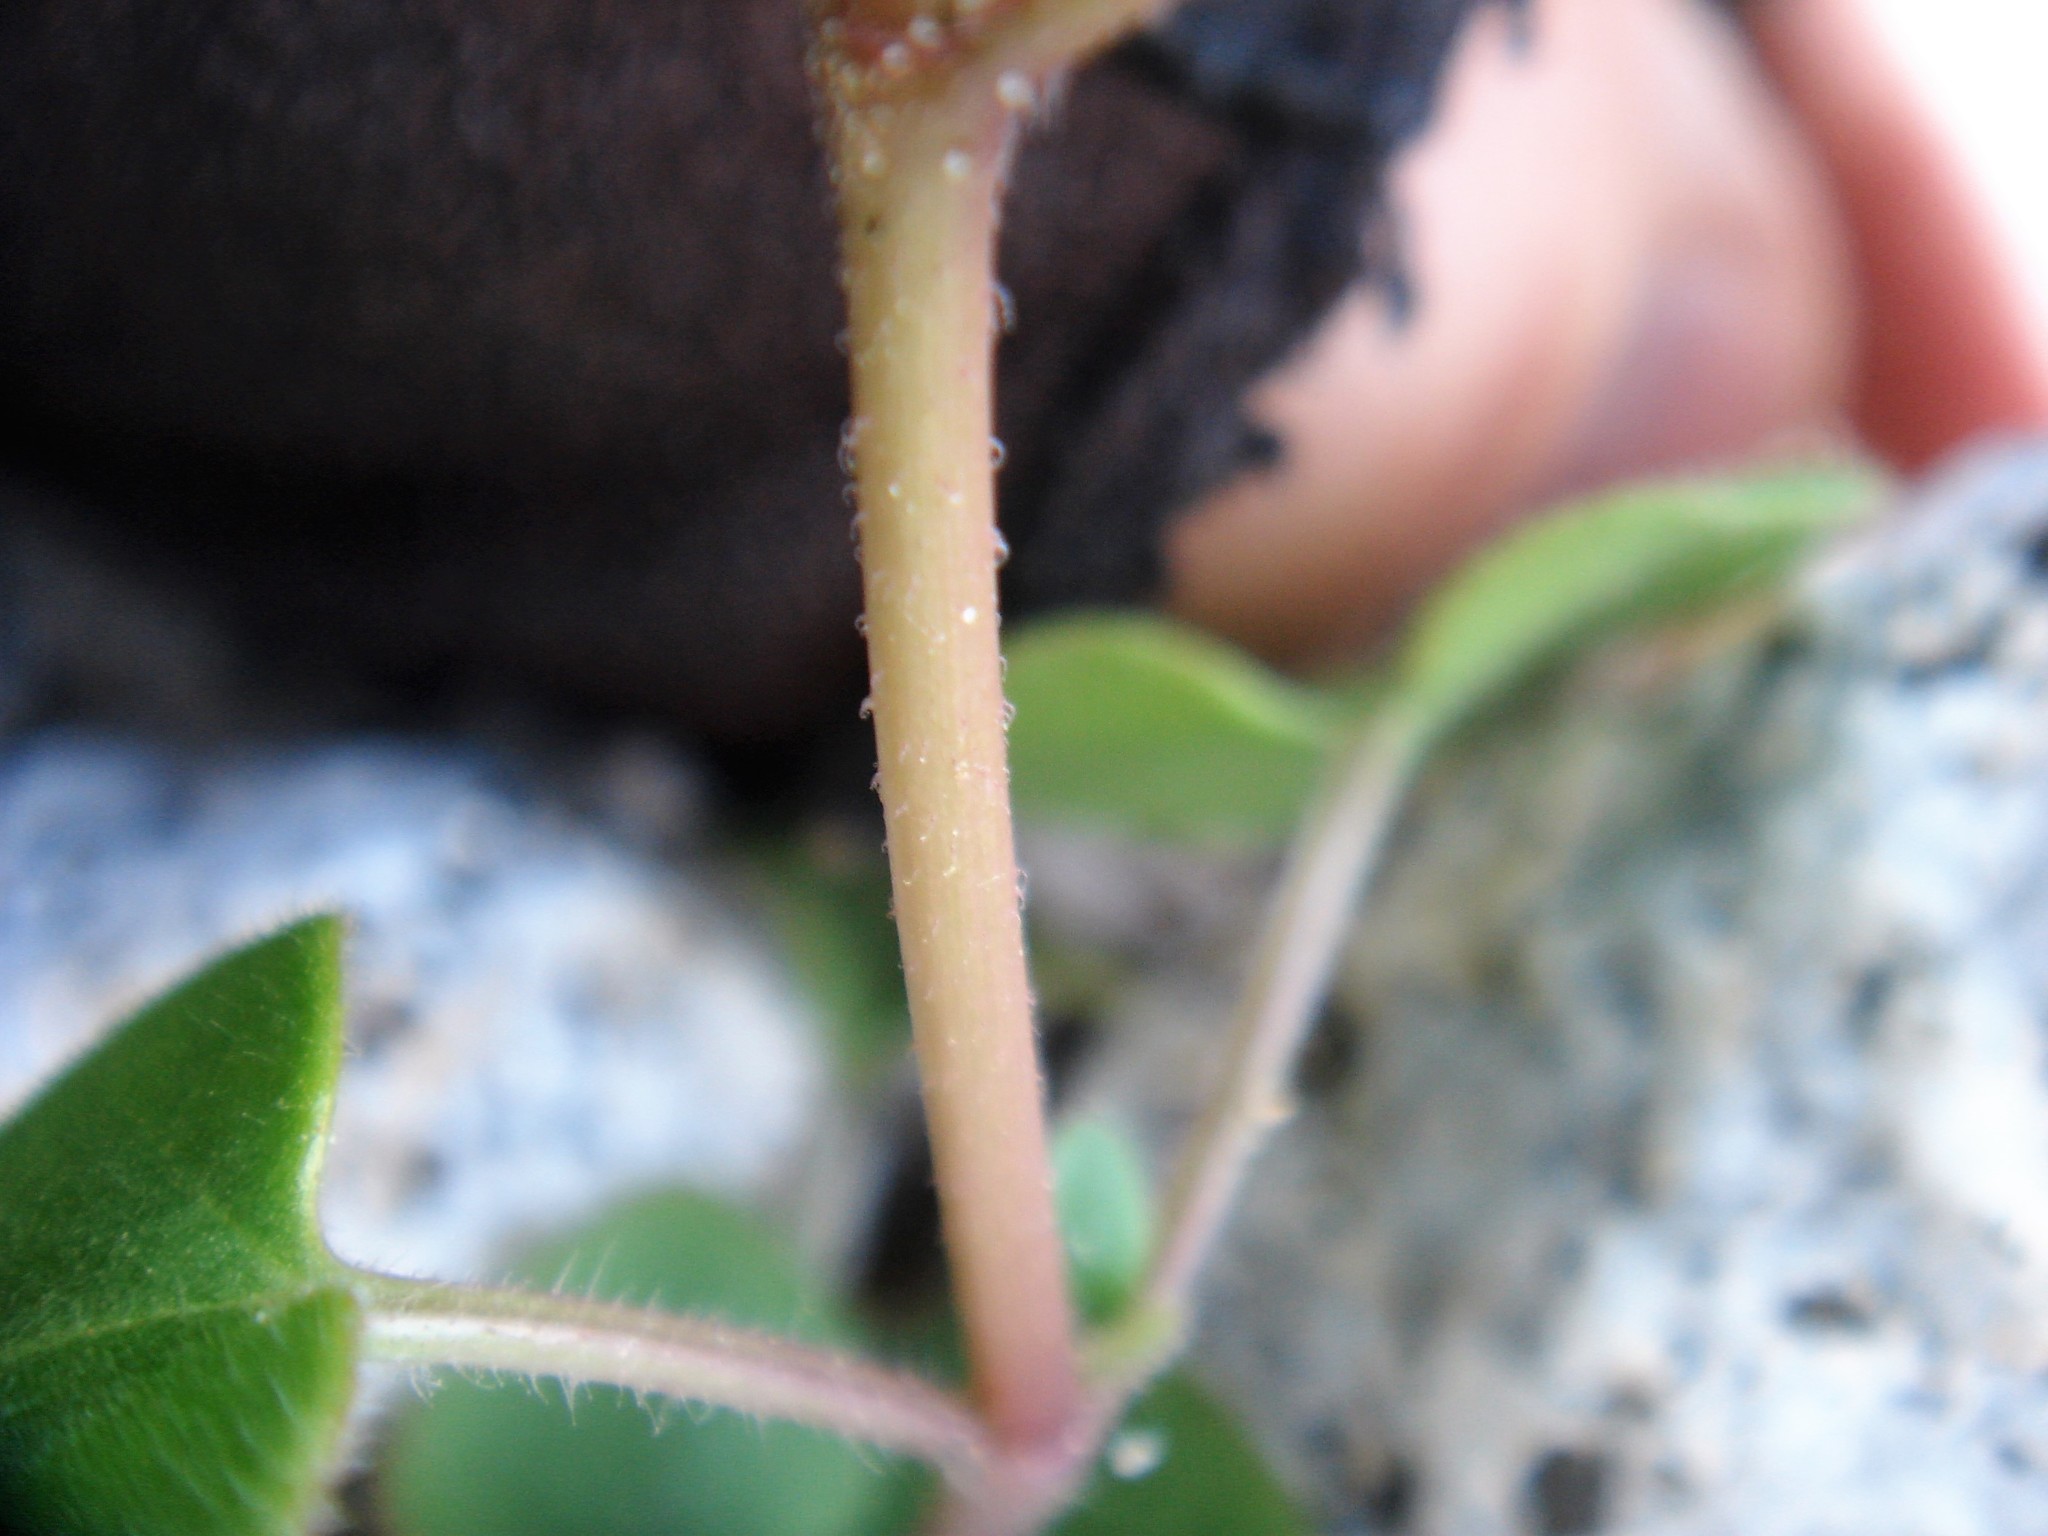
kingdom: Plantae
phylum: Tracheophyta
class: Magnoliopsida
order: Caryophyllales
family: Nyctaginaceae
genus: Mirabilis
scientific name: Mirabilis laevis
